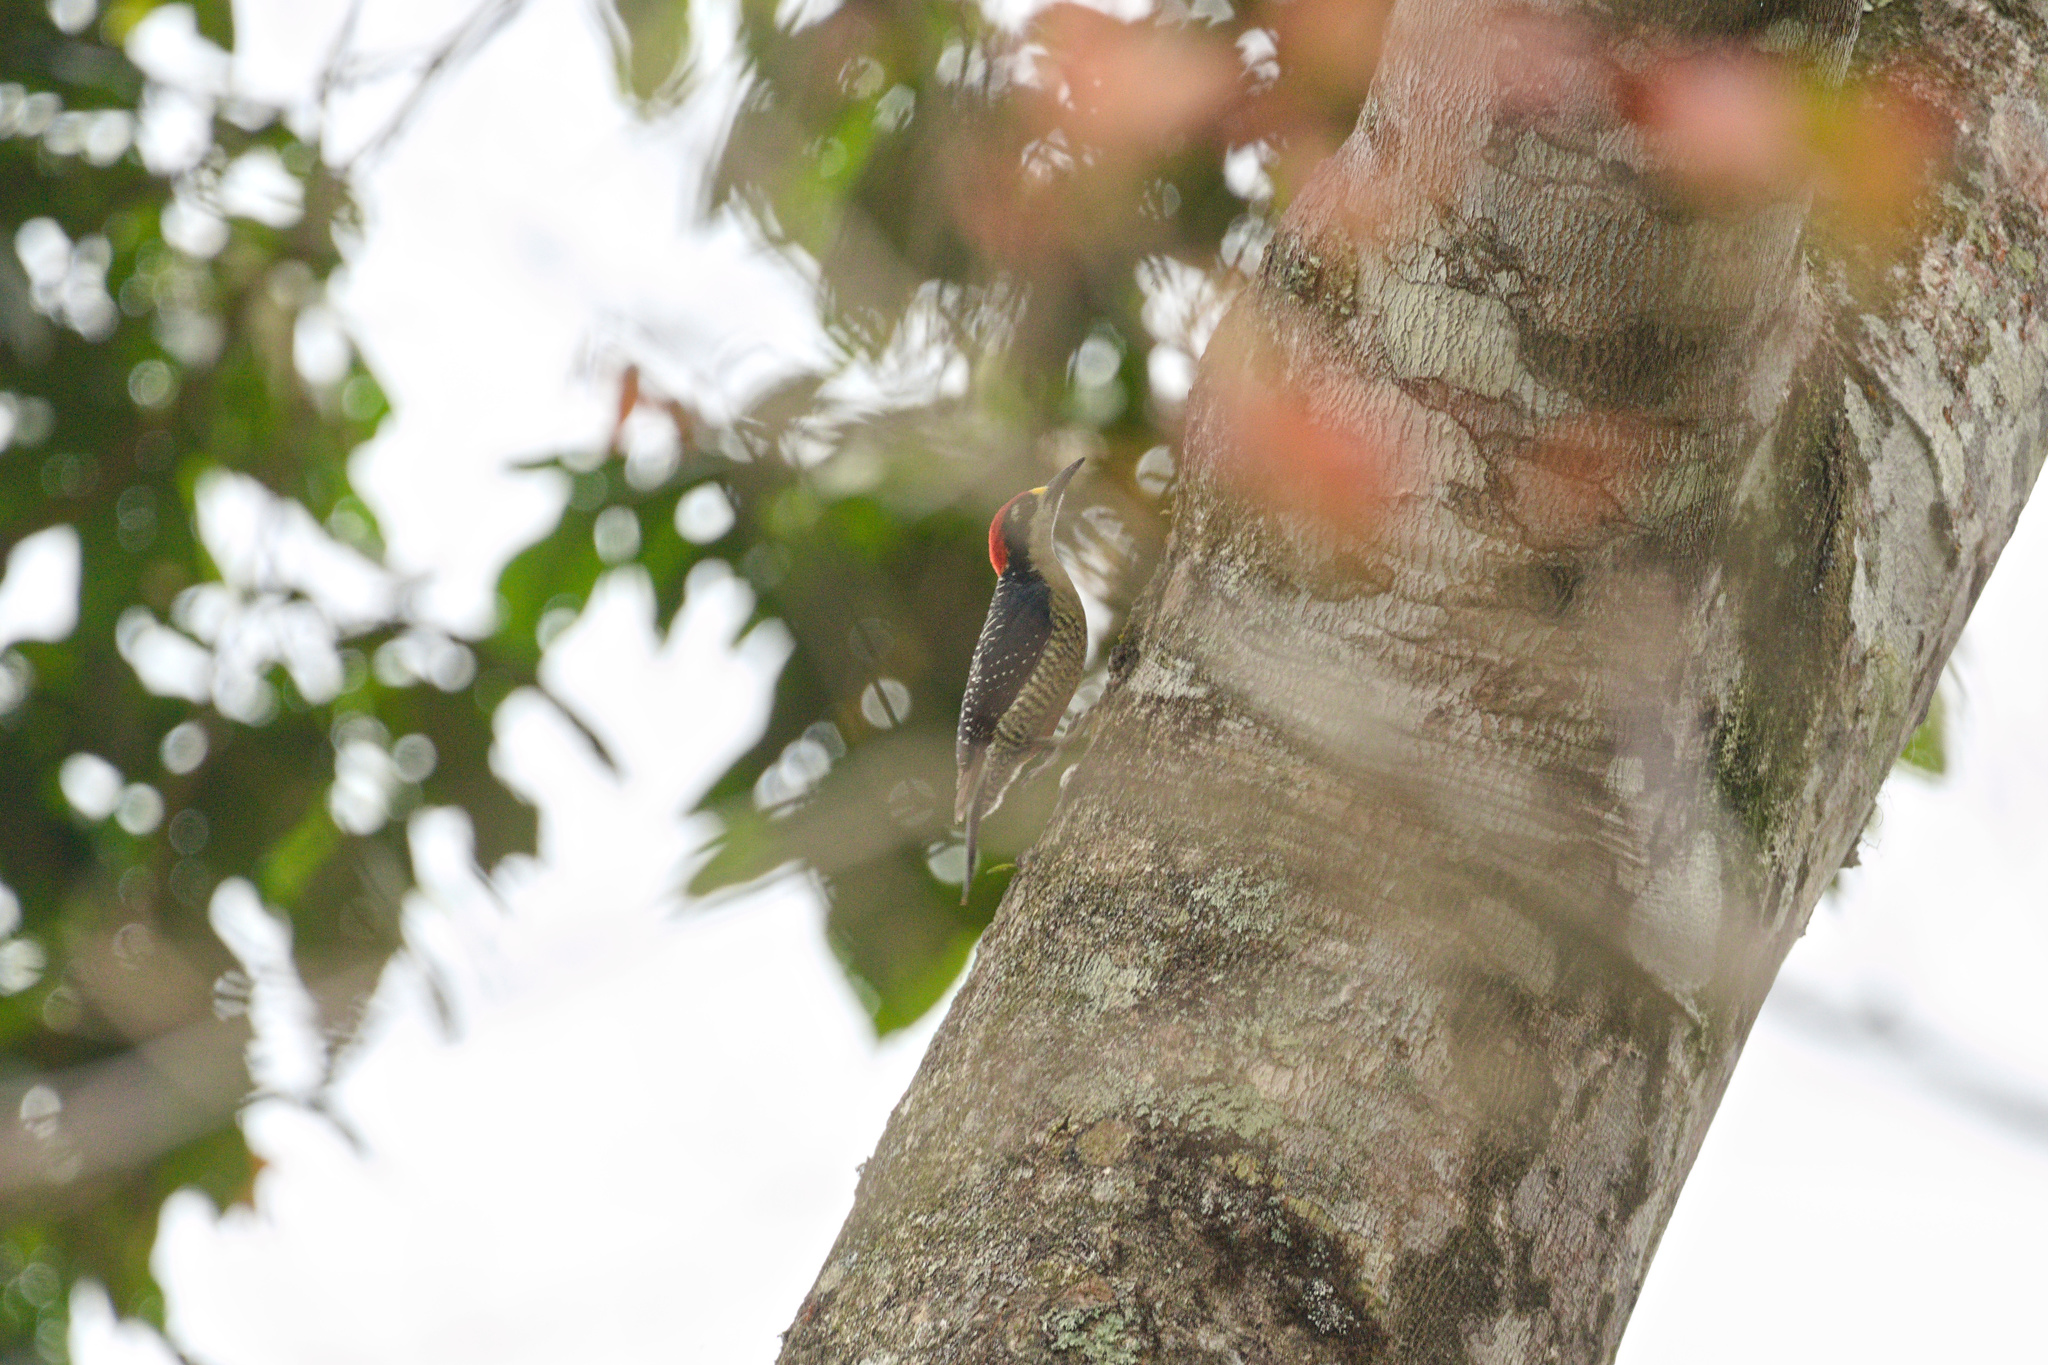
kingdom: Animalia
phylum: Chordata
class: Aves
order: Piciformes
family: Picidae
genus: Melanerpes
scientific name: Melanerpes pucherani
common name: Black-cheeked woodpecker
